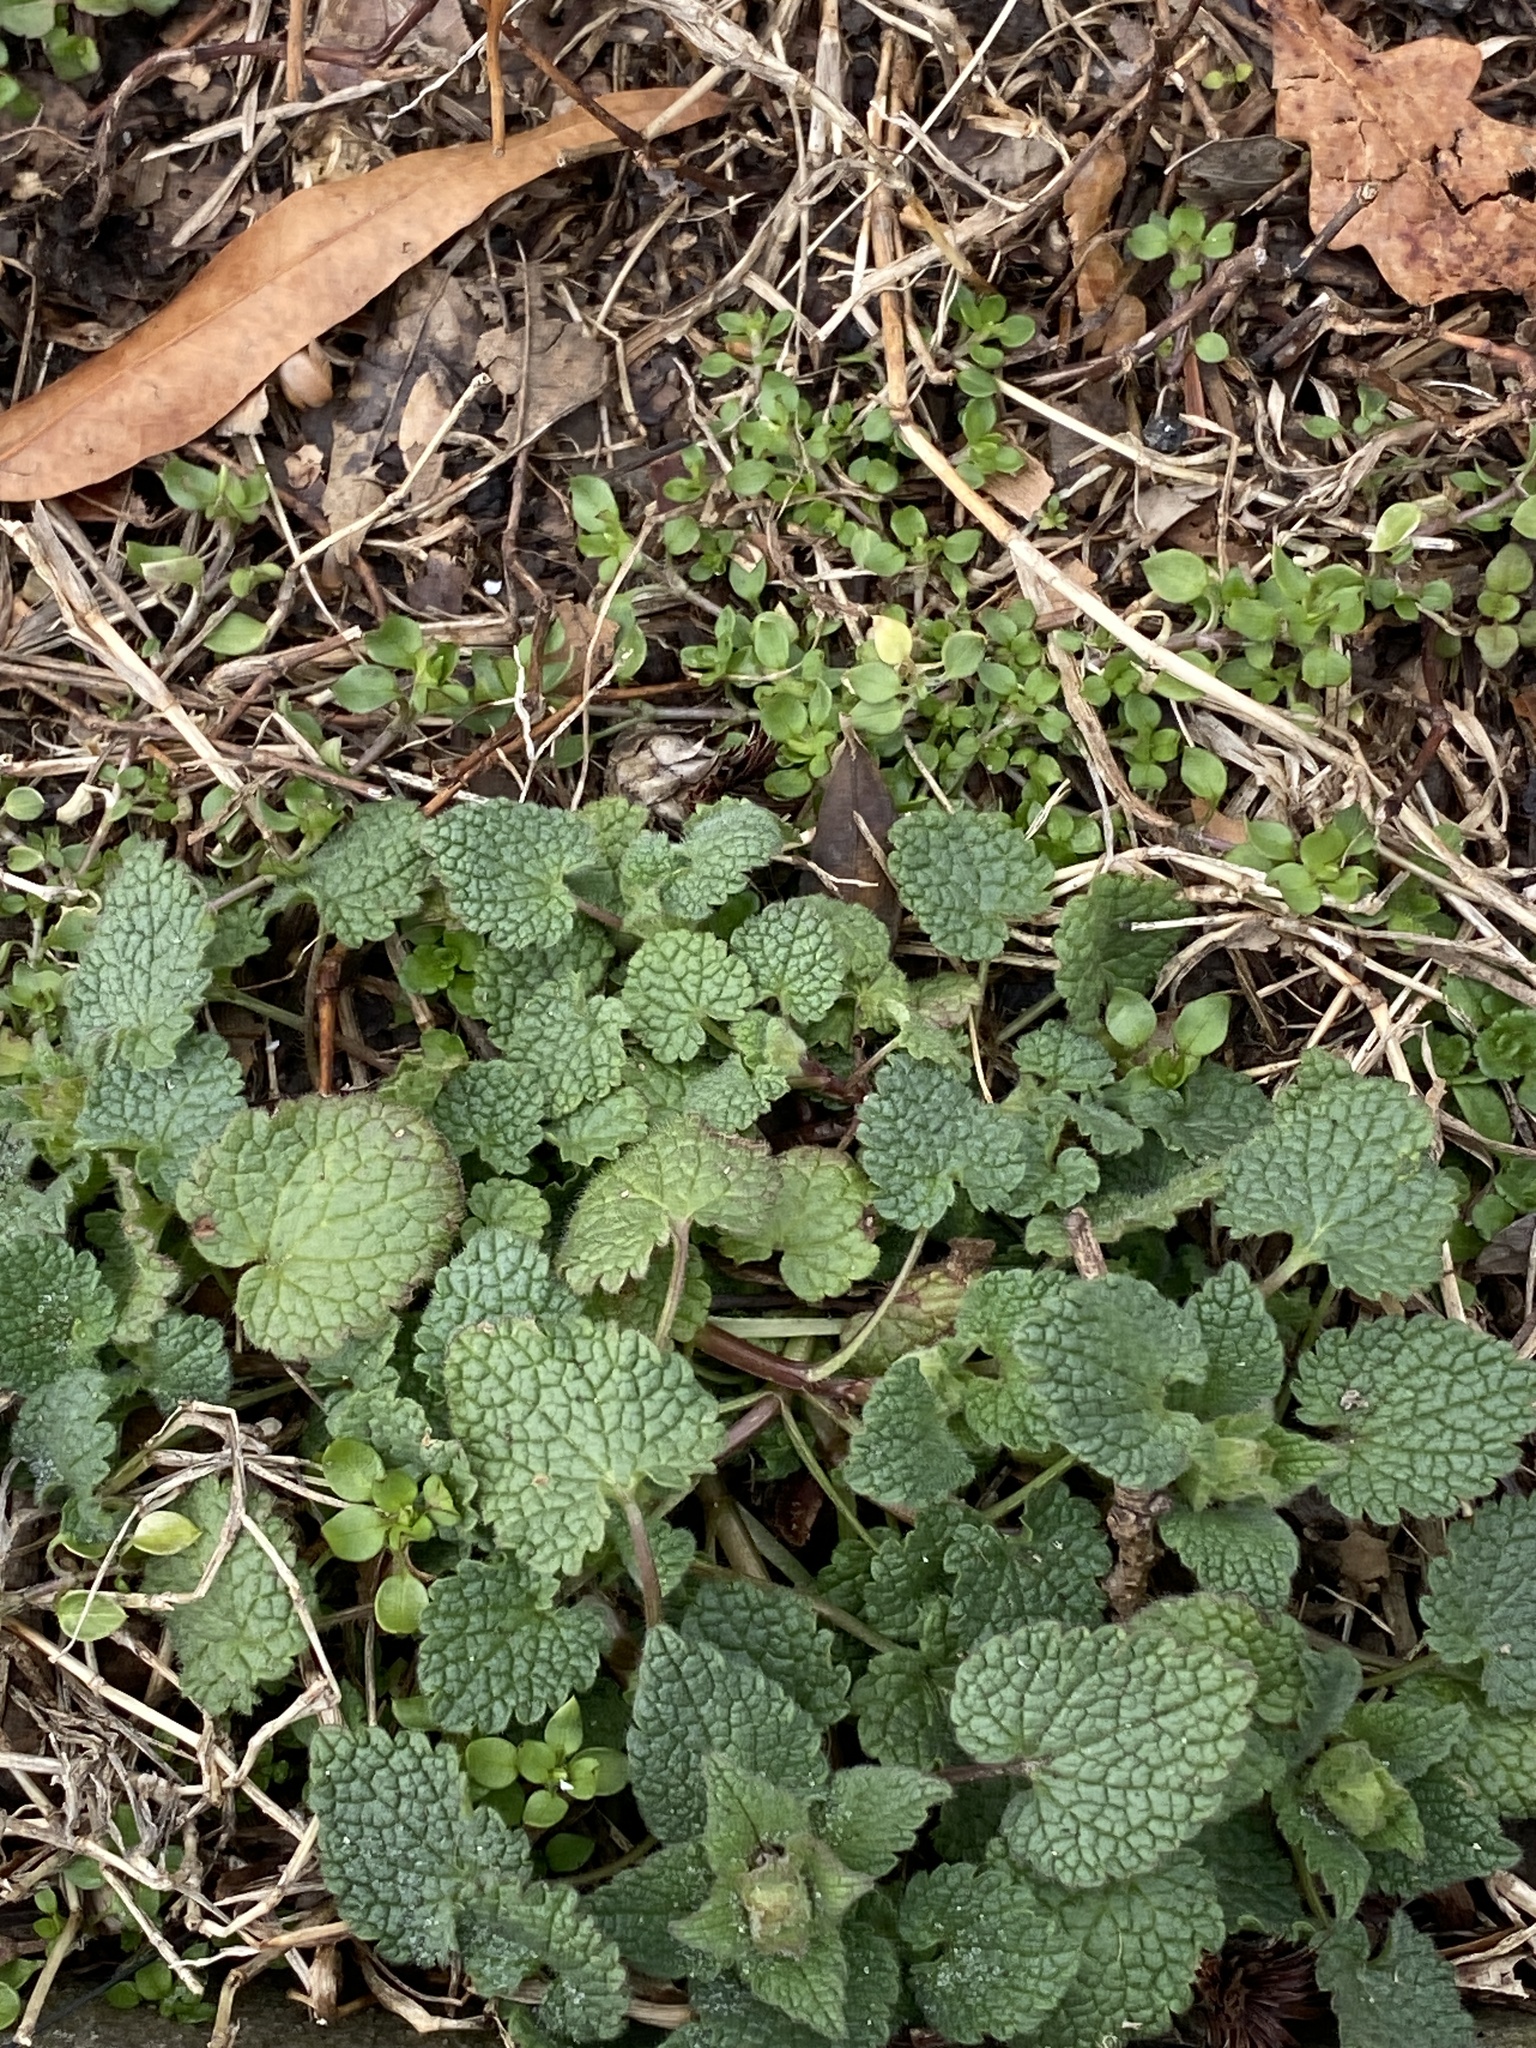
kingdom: Plantae
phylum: Tracheophyta
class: Magnoliopsida
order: Lamiales
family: Lamiaceae
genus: Lamium
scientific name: Lamium purpureum
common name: Red dead-nettle
